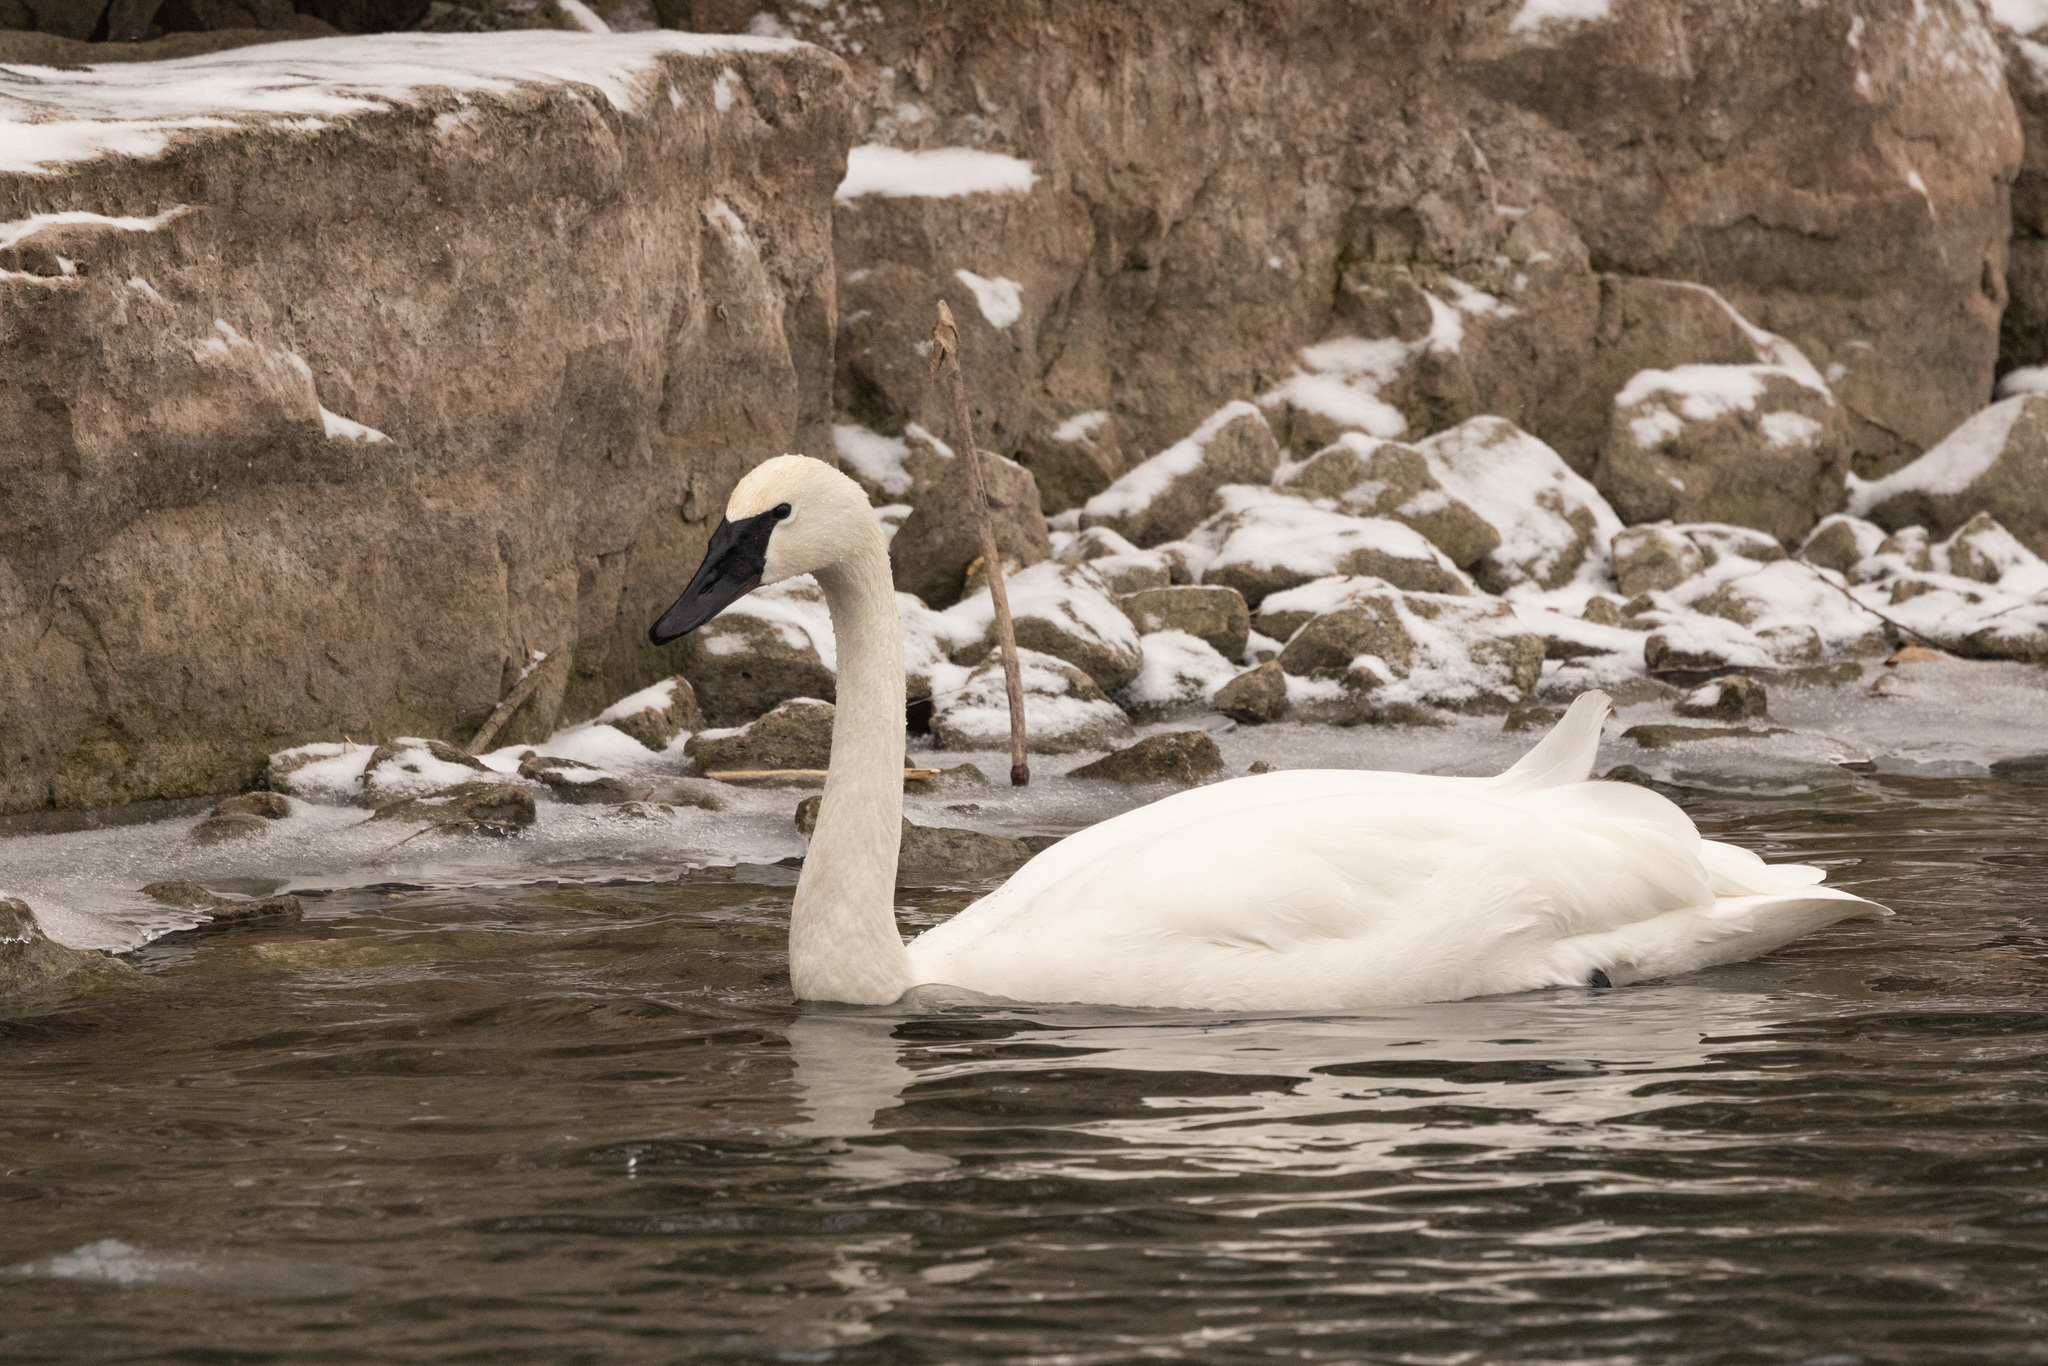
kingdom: Animalia
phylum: Chordata
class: Aves
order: Anseriformes
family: Anatidae
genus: Cygnus
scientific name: Cygnus buccinator
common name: Trumpeter swan
